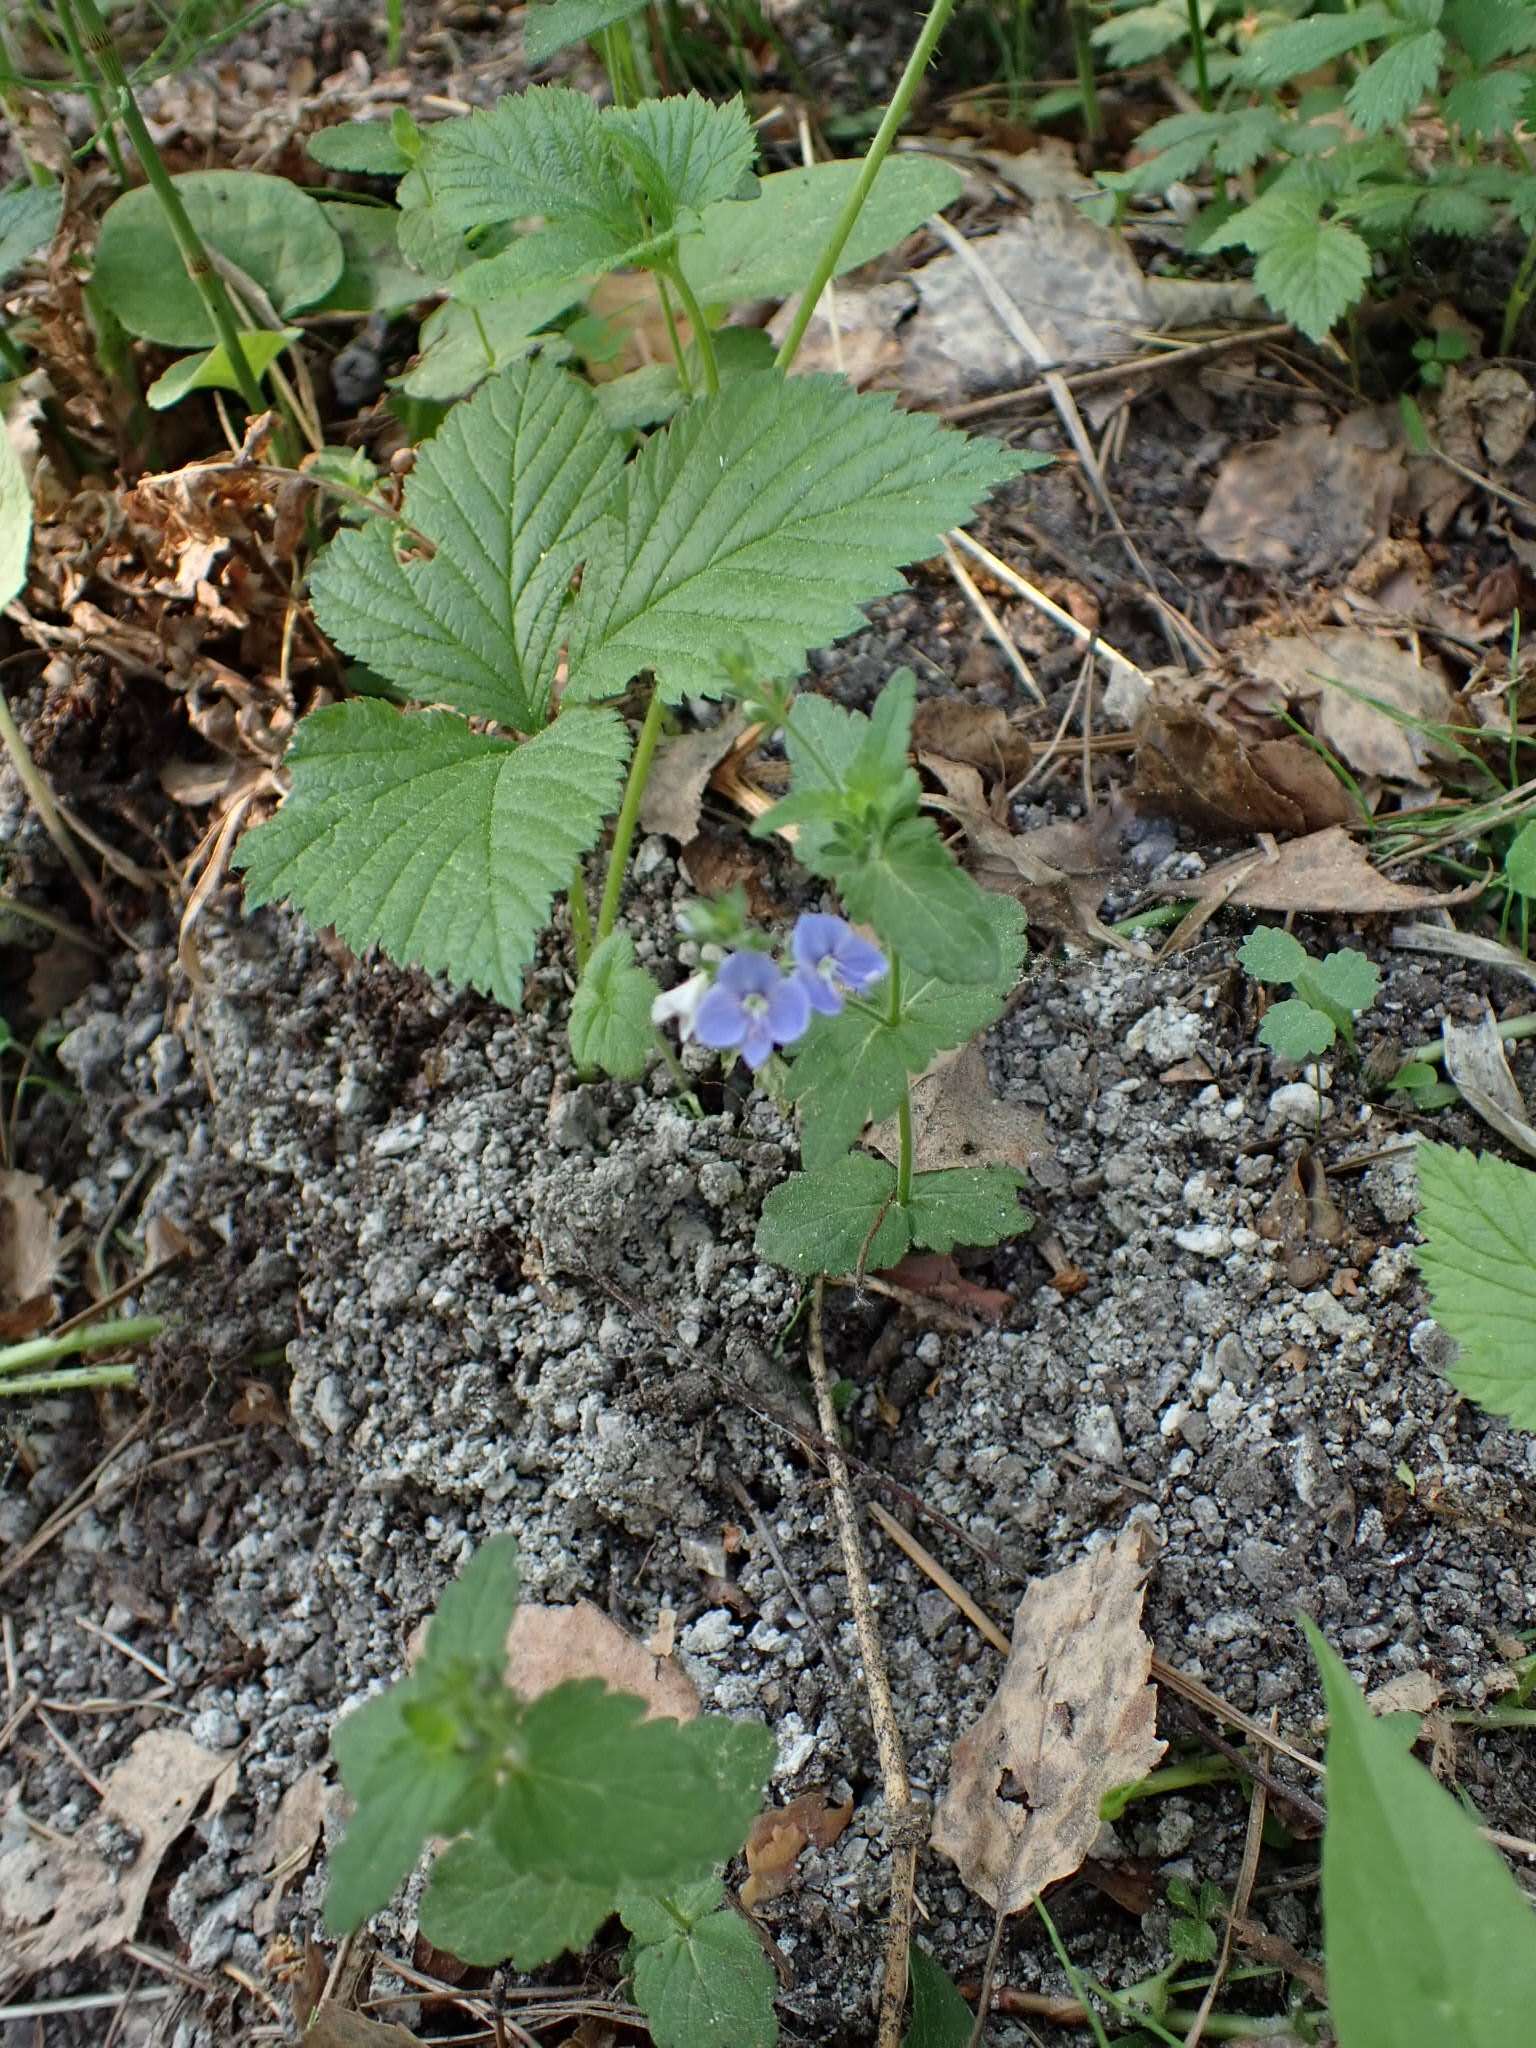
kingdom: Plantae
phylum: Tracheophyta
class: Magnoliopsida
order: Lamiales
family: Plantaginaceae
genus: Veronica
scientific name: Veronica chamaedrys
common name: Germander speedwell
